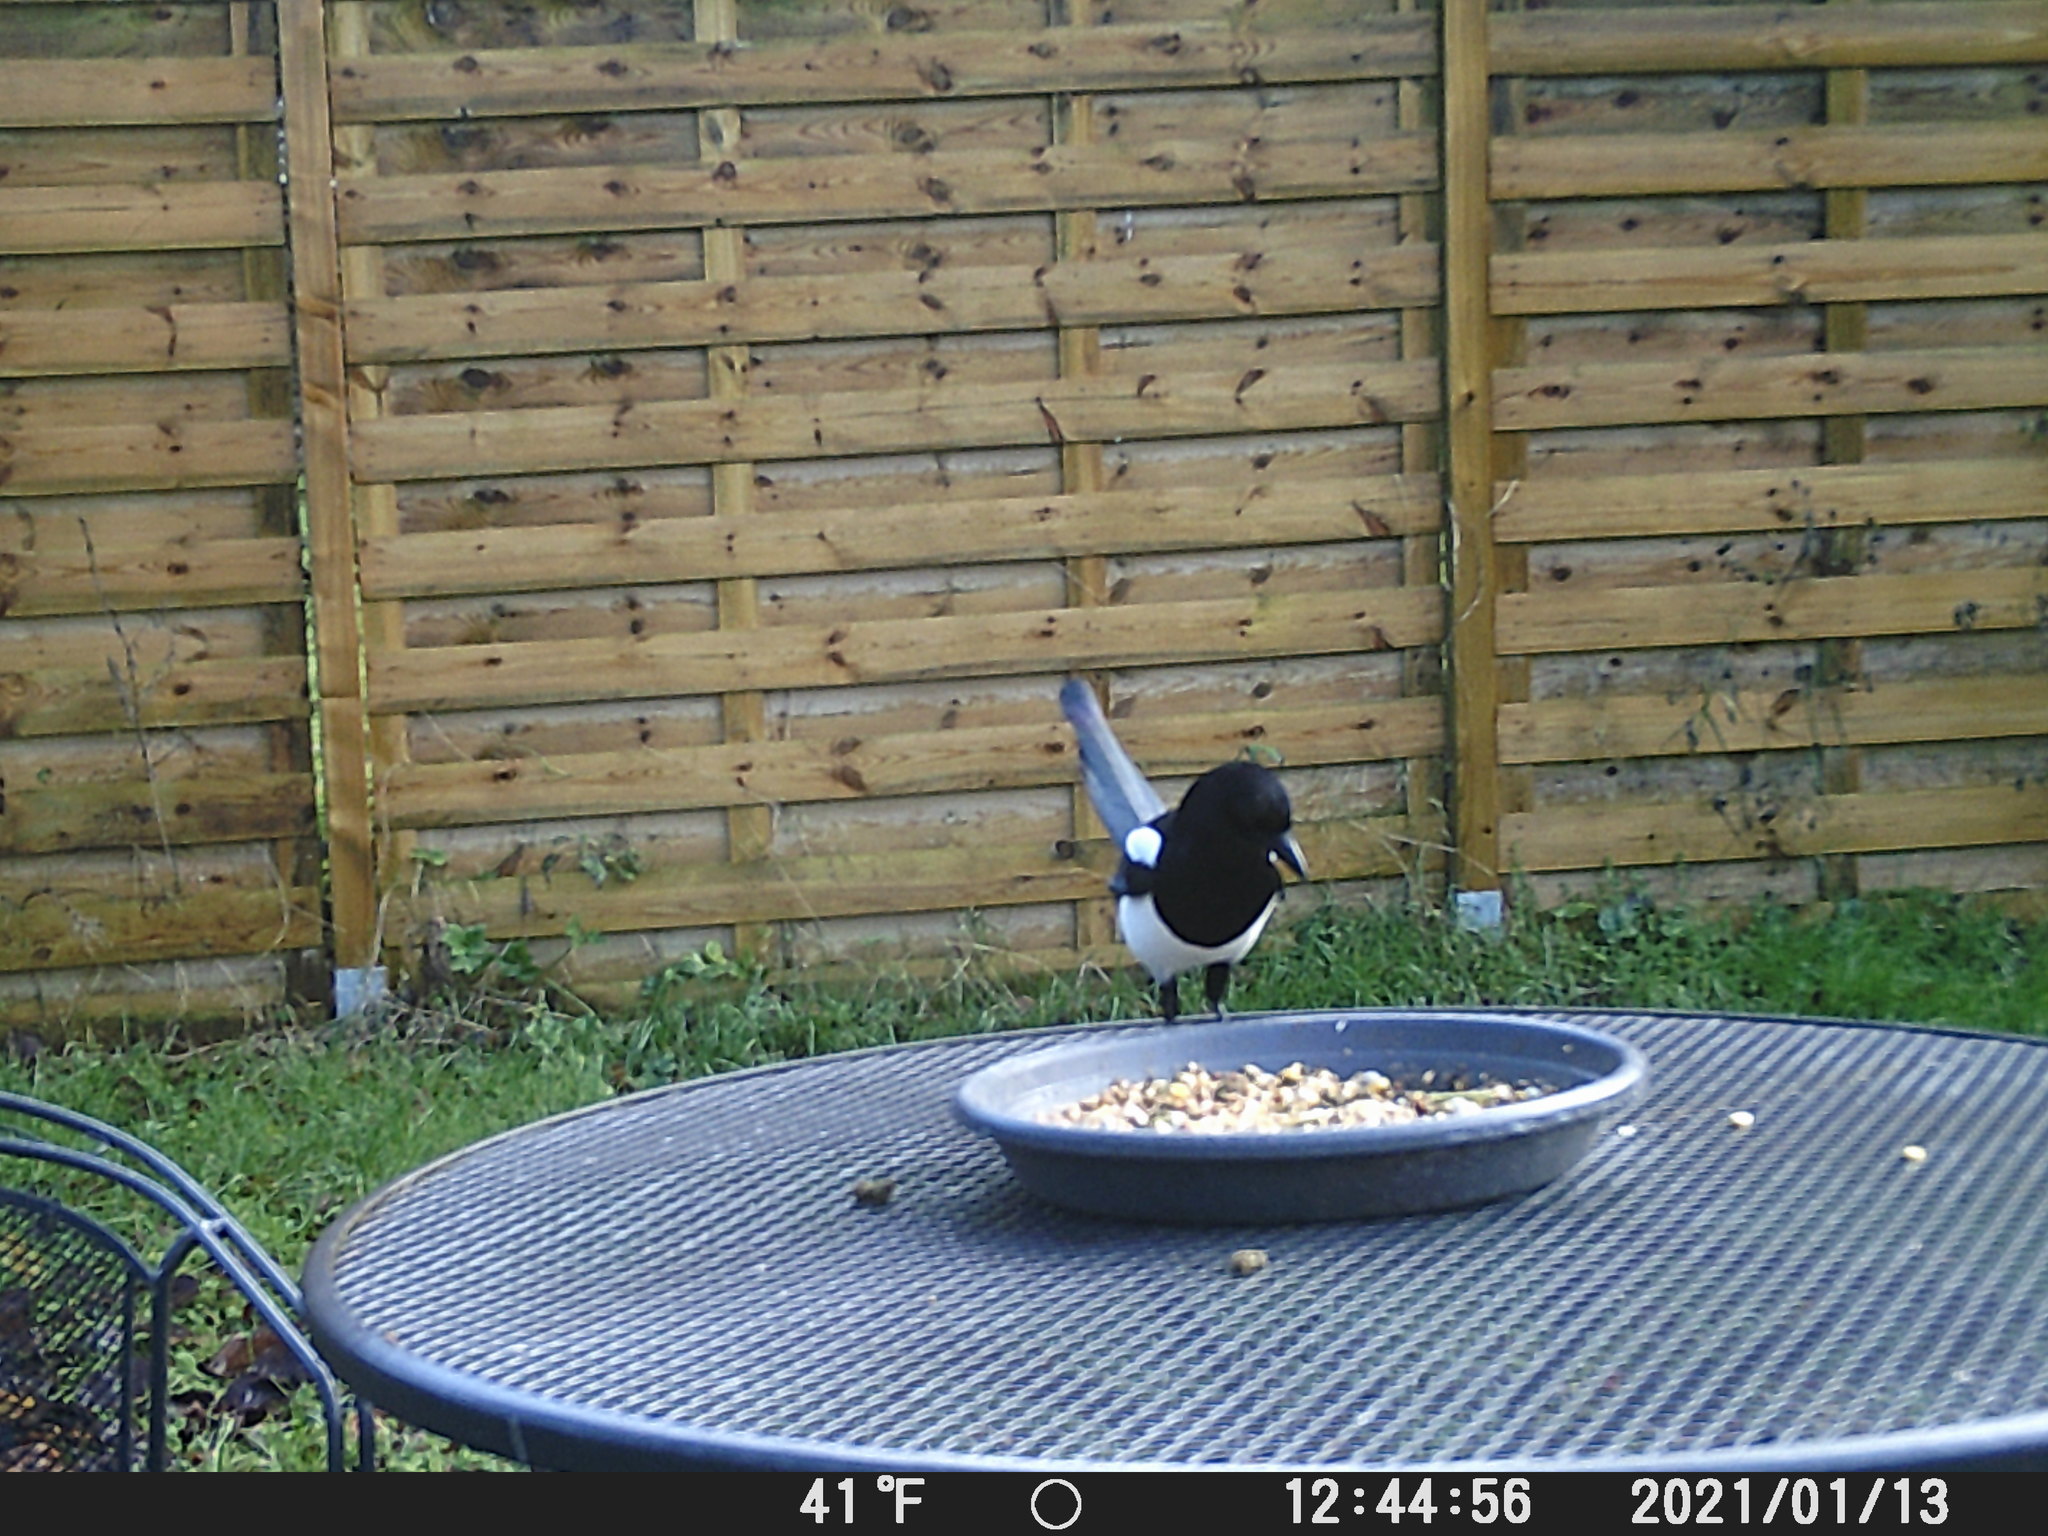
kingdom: Animalia
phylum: Chordata
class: Aves
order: Passeriformes
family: Corvidae
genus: Pica
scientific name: Pica pica
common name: Eurasian magpie
